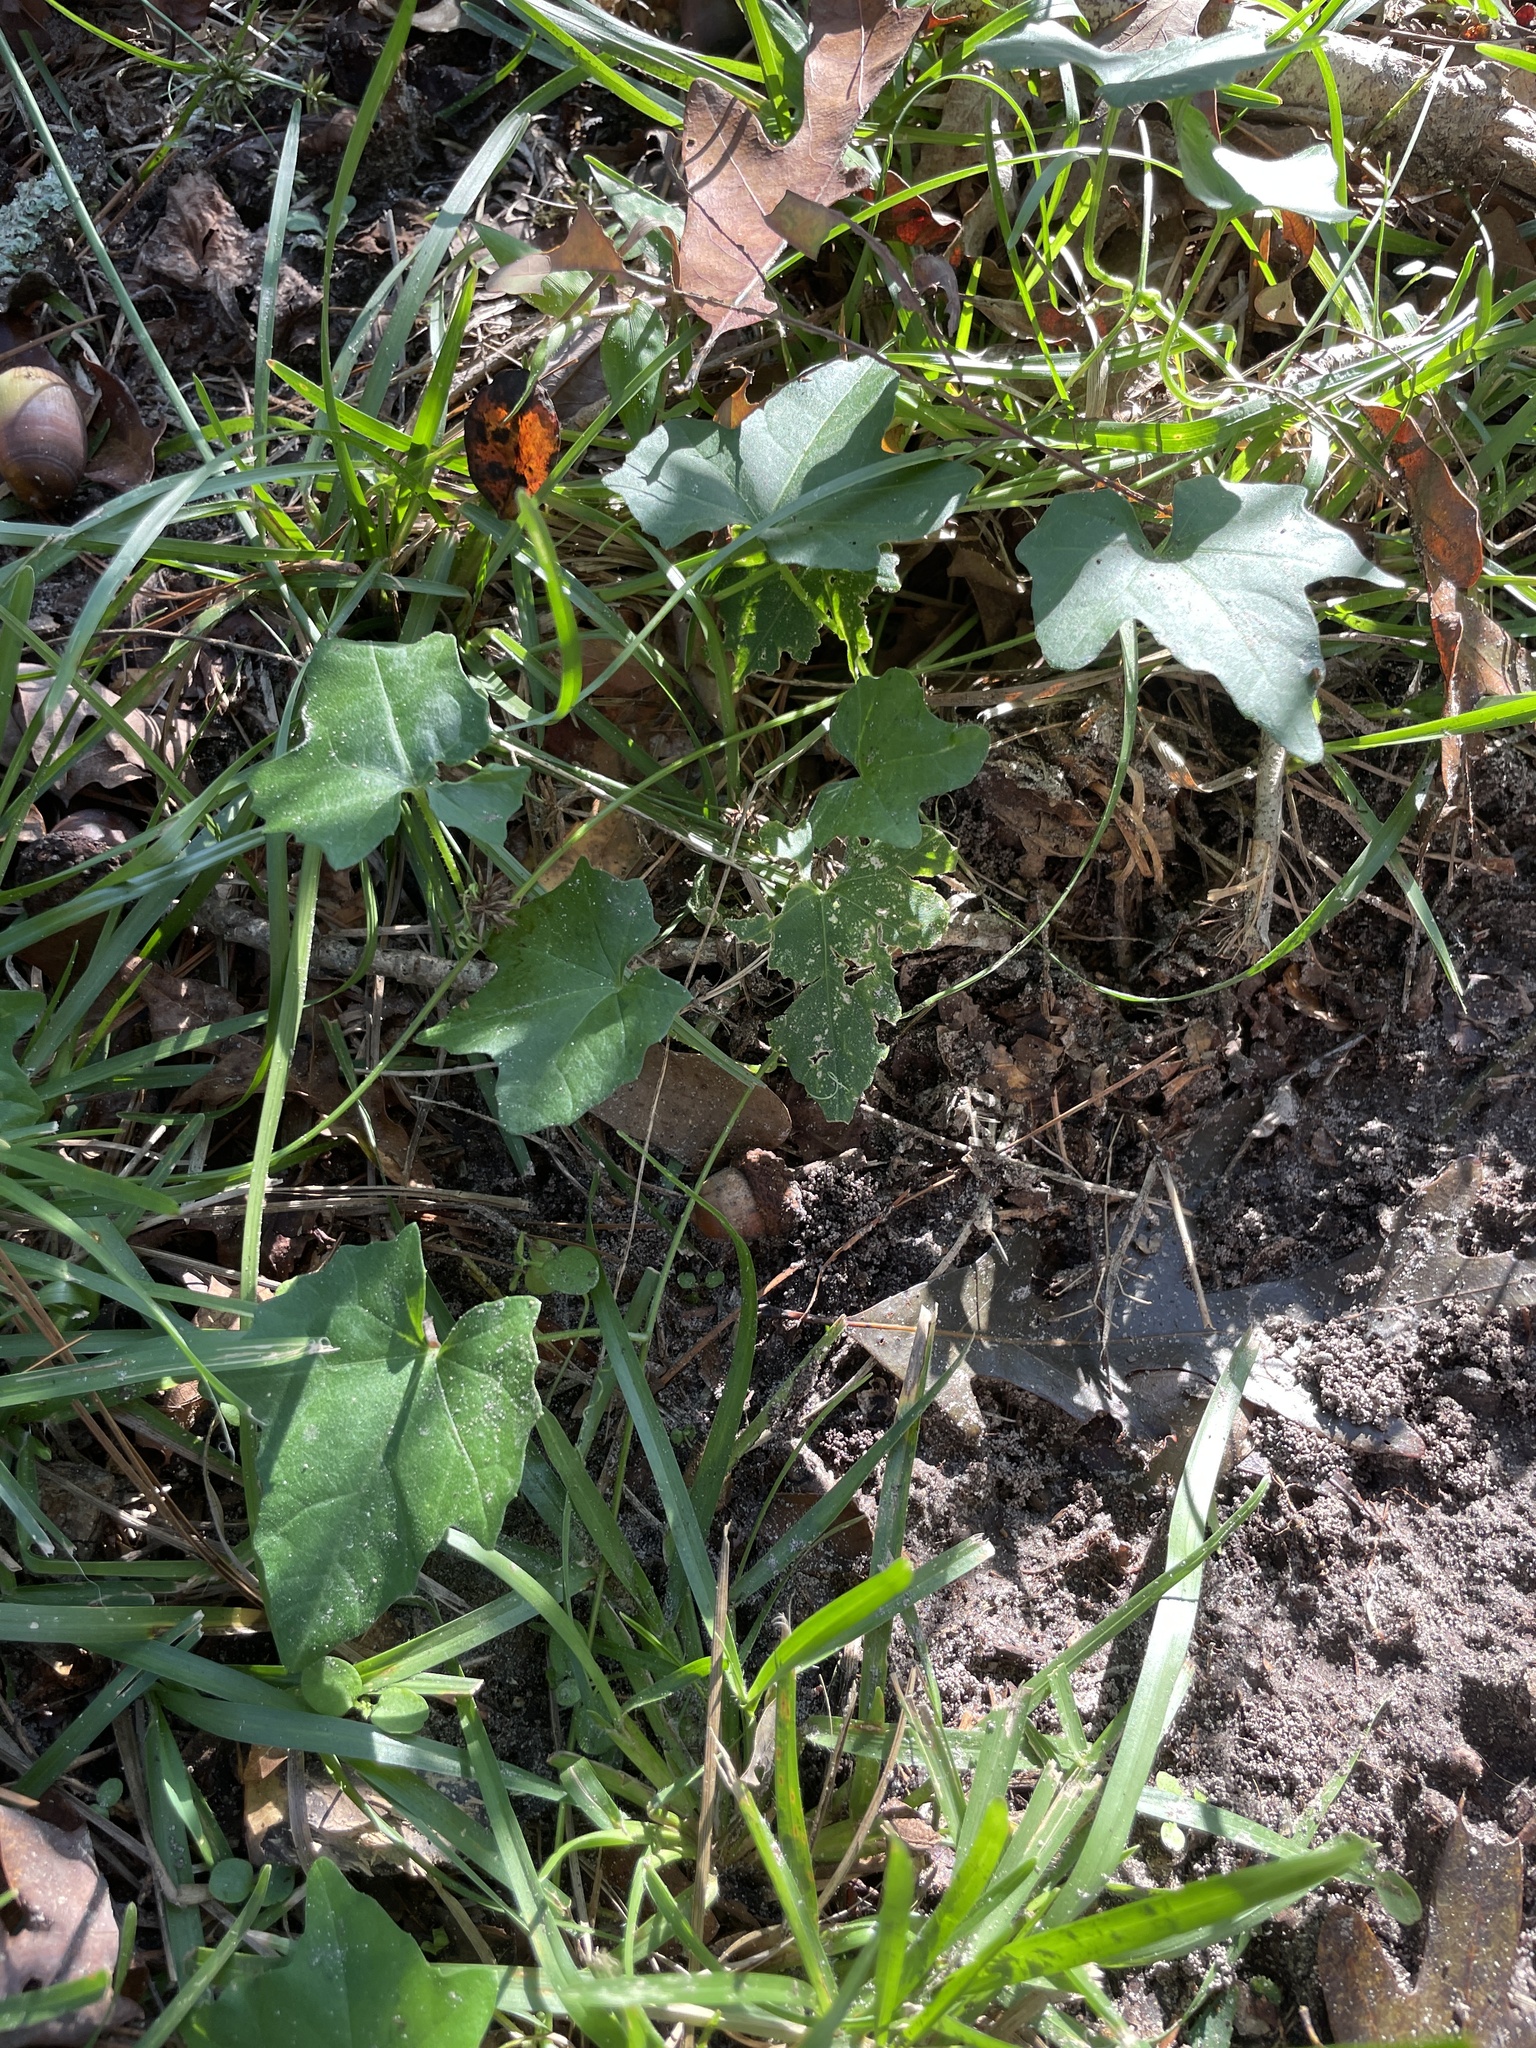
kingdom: Plantae
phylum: Tracheophyta
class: Magnoliopsida
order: Cucurbitales
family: Cucurbitaceae
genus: Melothria
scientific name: Melothria pendula
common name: Creeping-cucumber
